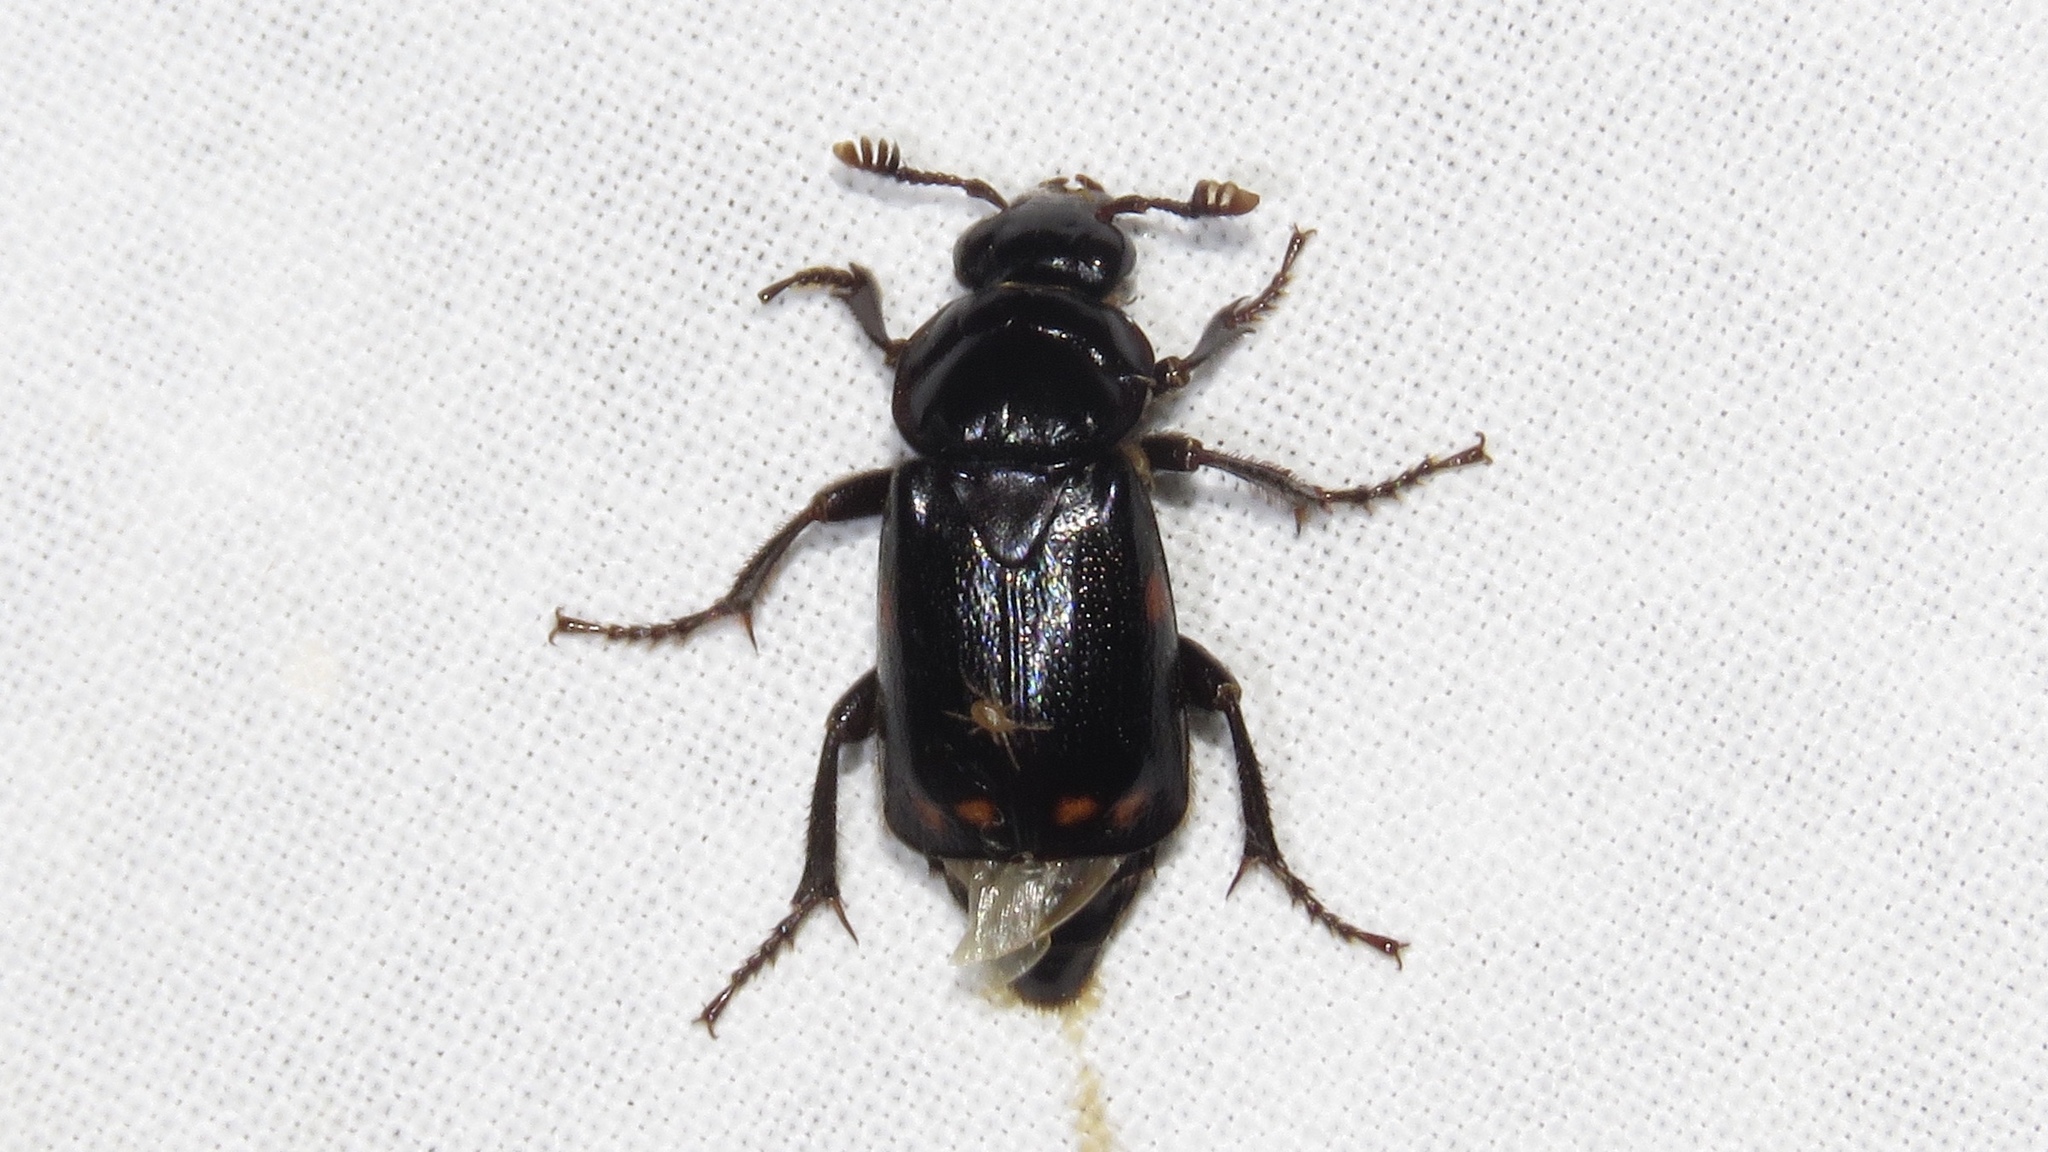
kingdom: Animalia
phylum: Arthropoda
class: Insecta
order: Coleoptera
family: Staphylinidae
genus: Nicrophorus
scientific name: Nicrophorus pustulatus
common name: Pustulated carrion beetle
